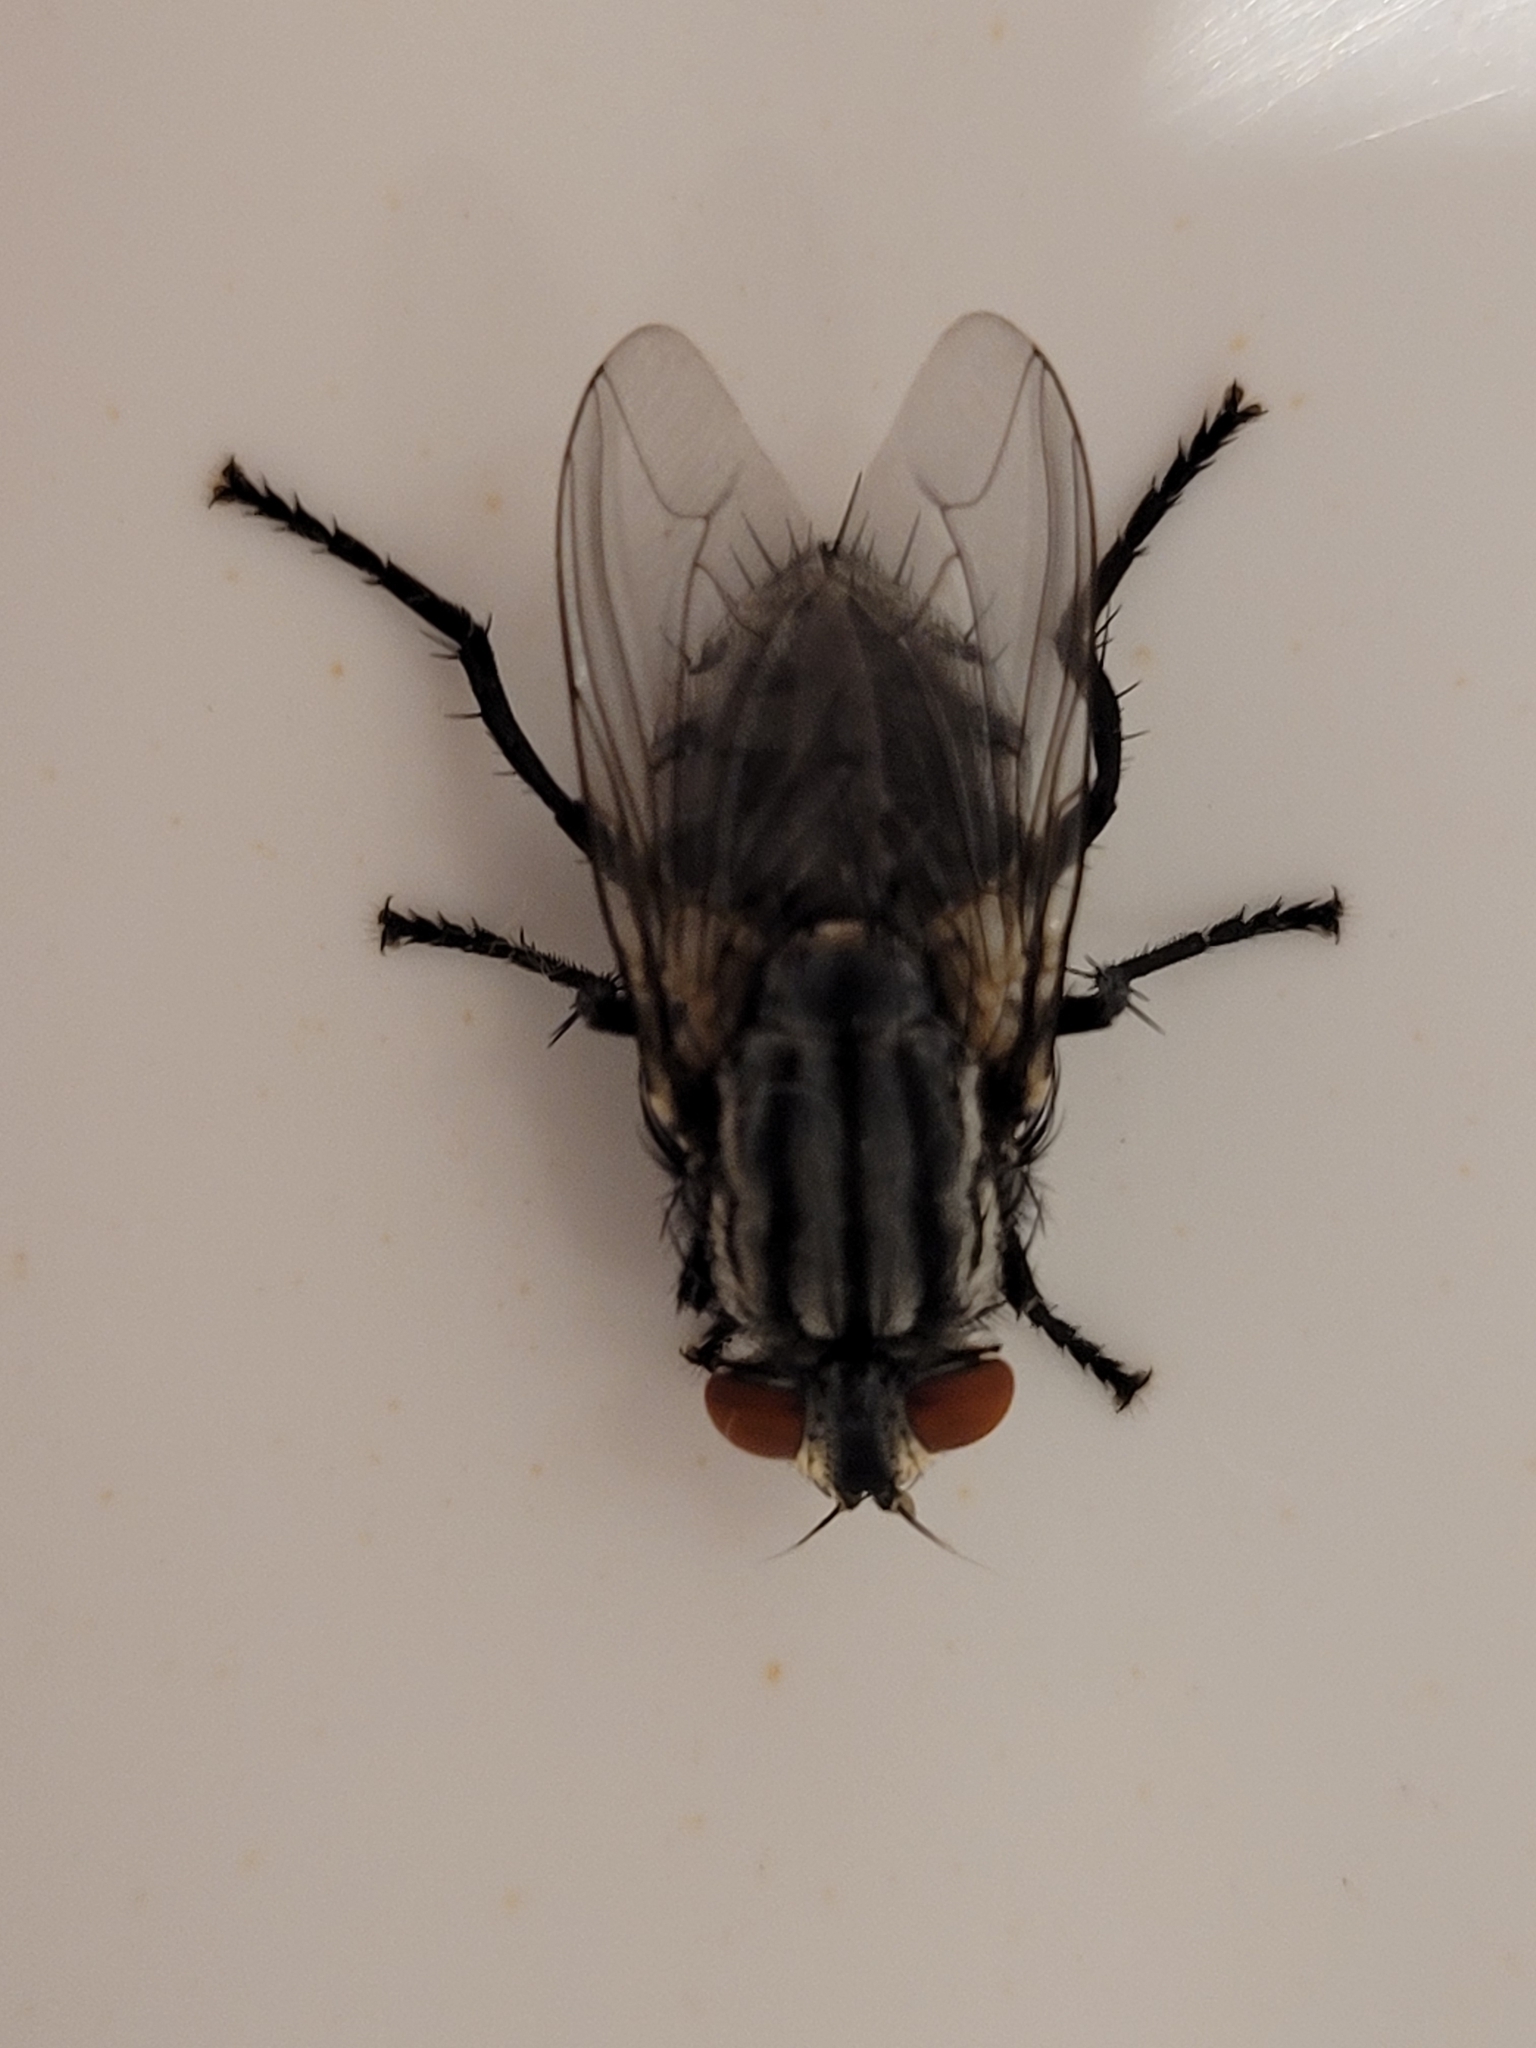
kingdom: Animalia
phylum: Arthropoda
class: Insecta
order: Diptera
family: Sarcophagidae
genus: Oxysarcodexia
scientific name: Oxysarcodexia varia
